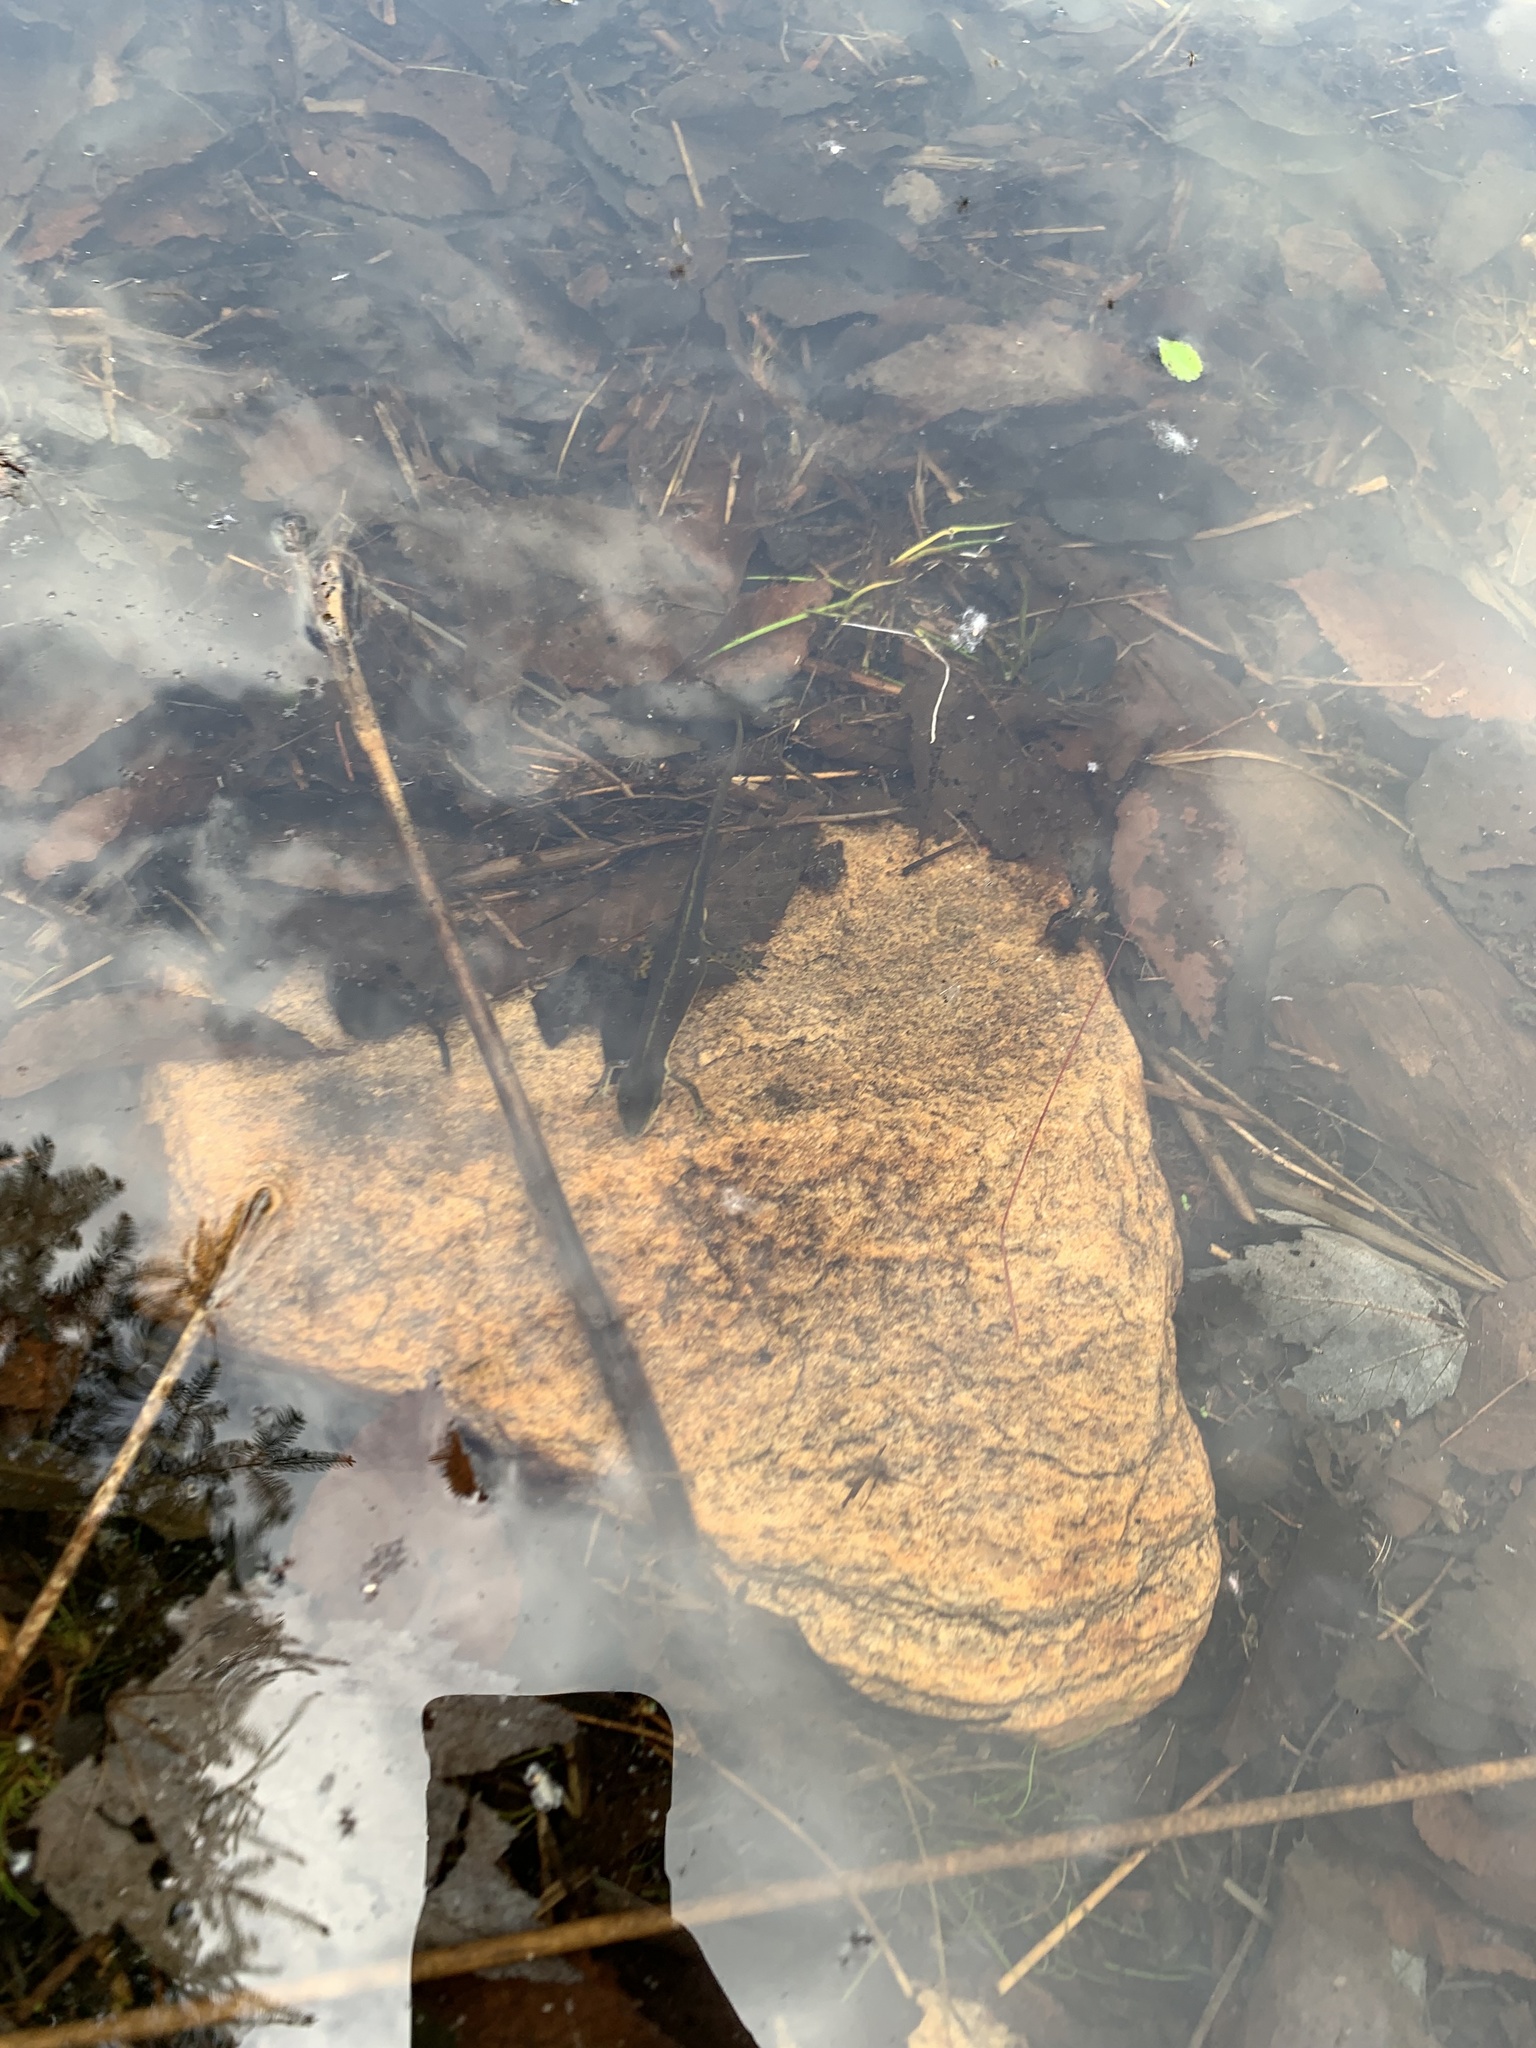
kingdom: Animalia
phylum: Chordata
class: Amphibia
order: Caudata
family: Salamandridae
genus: Notophthalmus
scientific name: Notophthalmus viridescens
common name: Eastern newt
